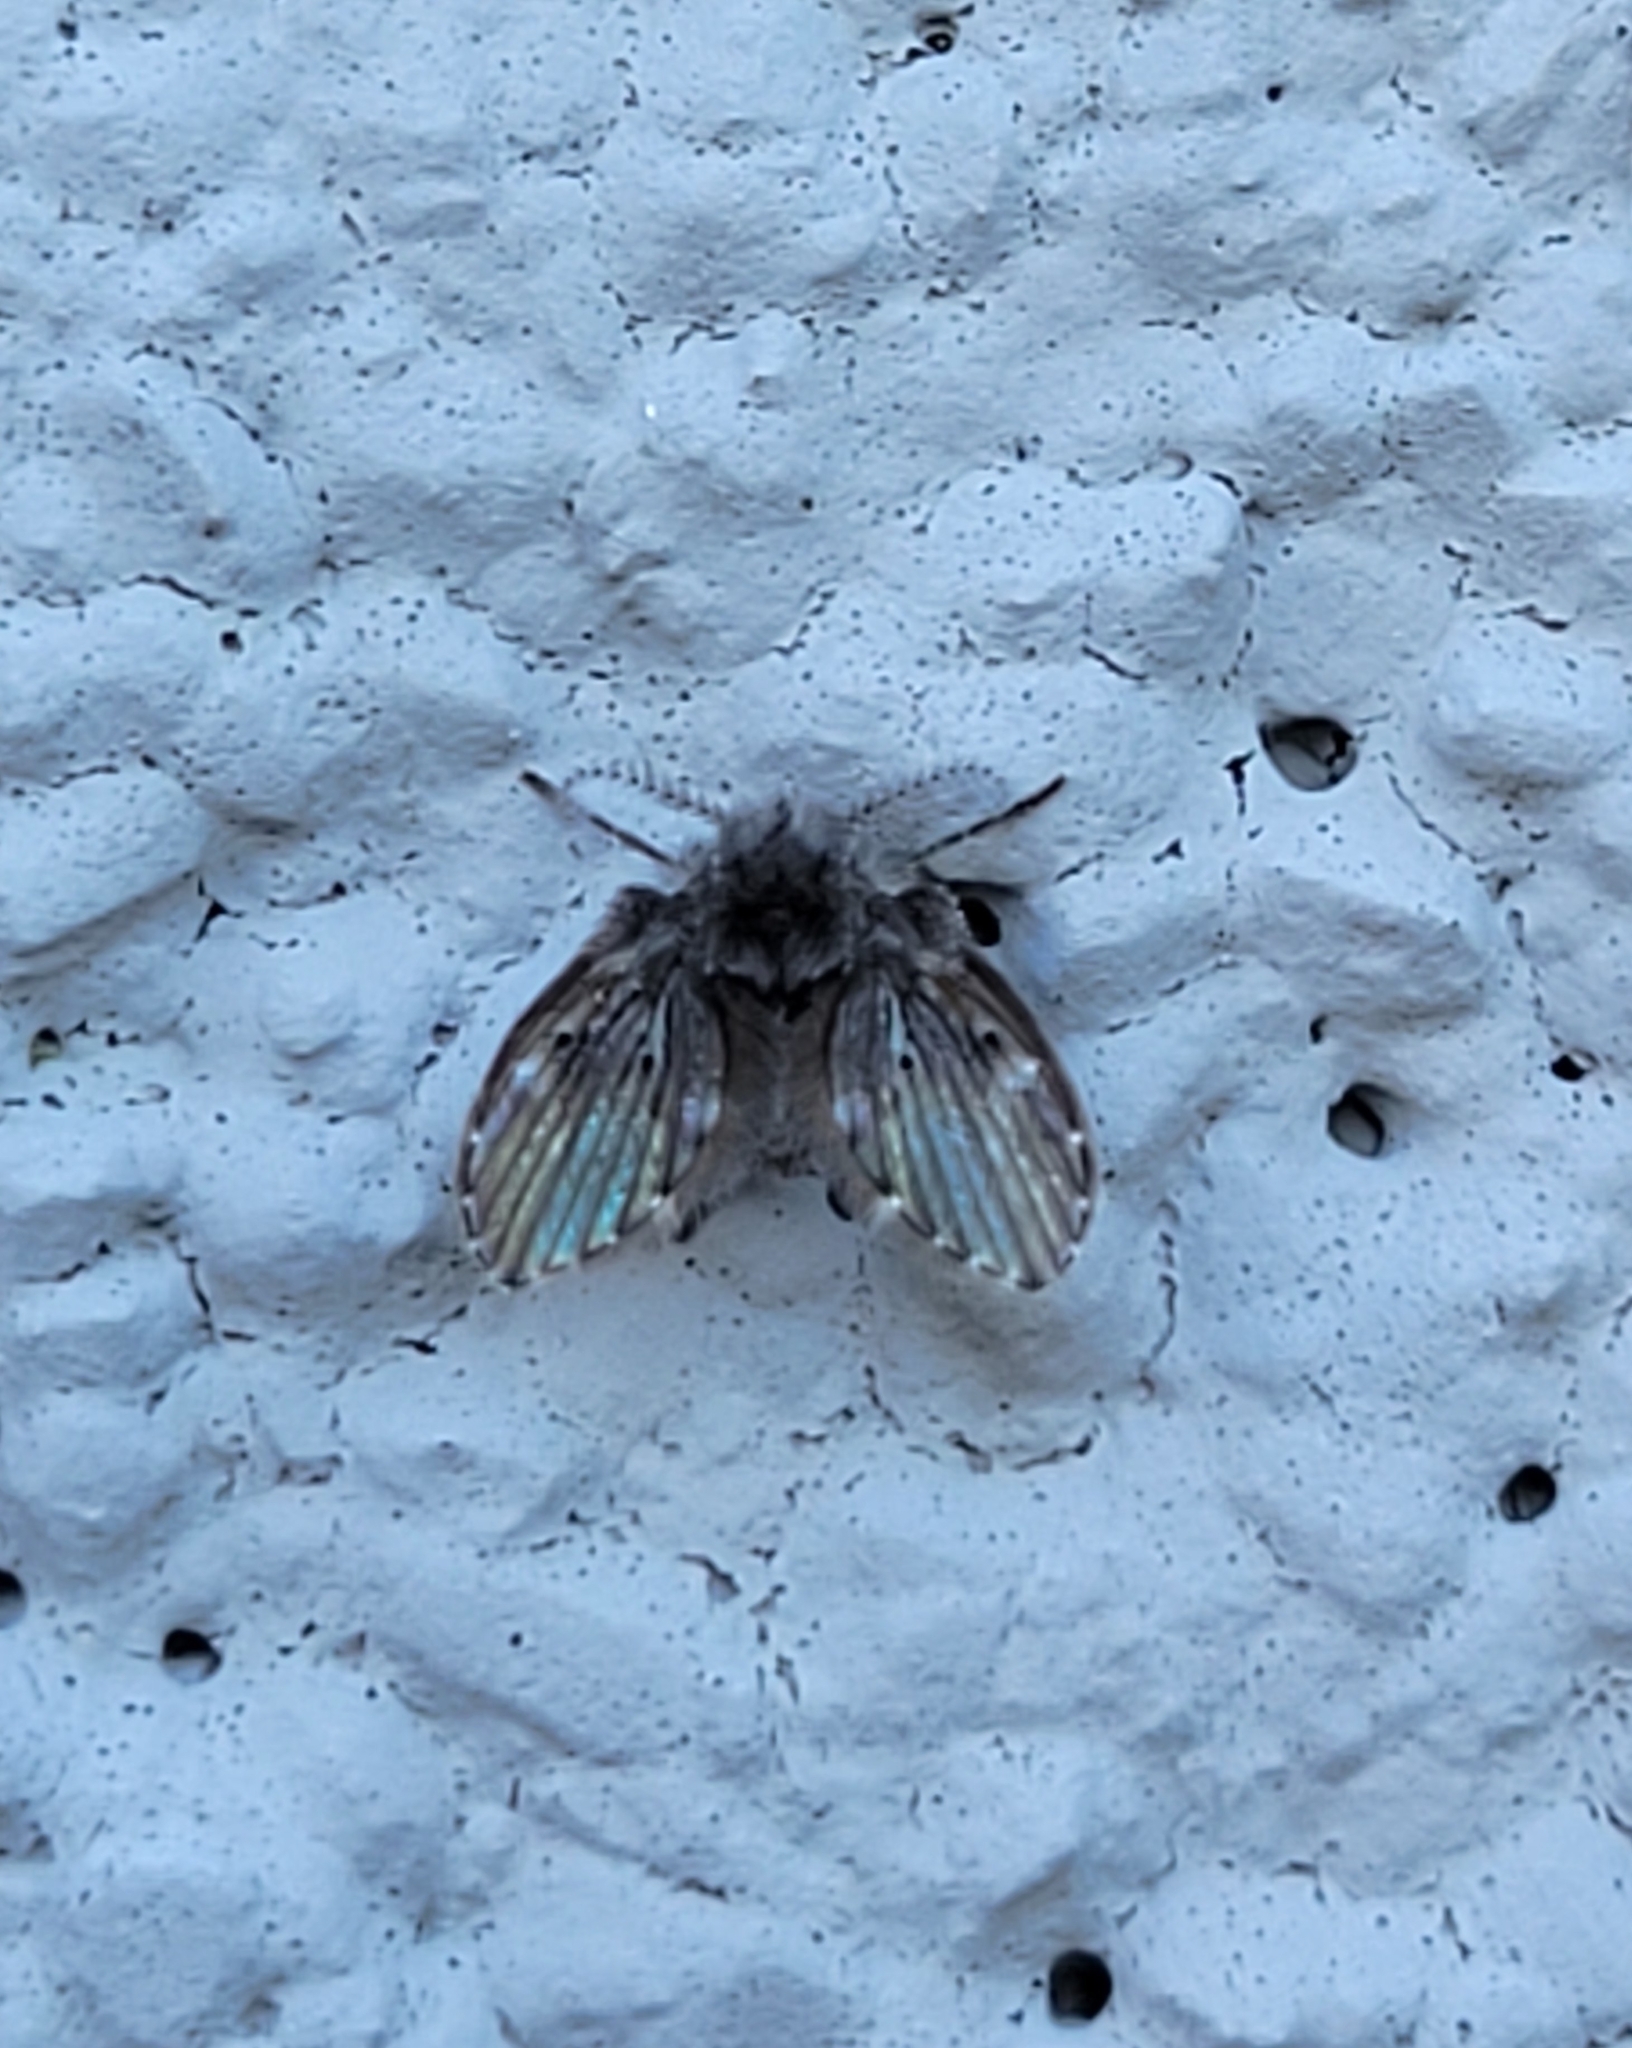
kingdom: Animalia
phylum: Arthropoda
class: Insecta
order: Diptera
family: Psychodidae
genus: Clogmia
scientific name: Clogmia albipunctatus
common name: White-spotted moth fly
